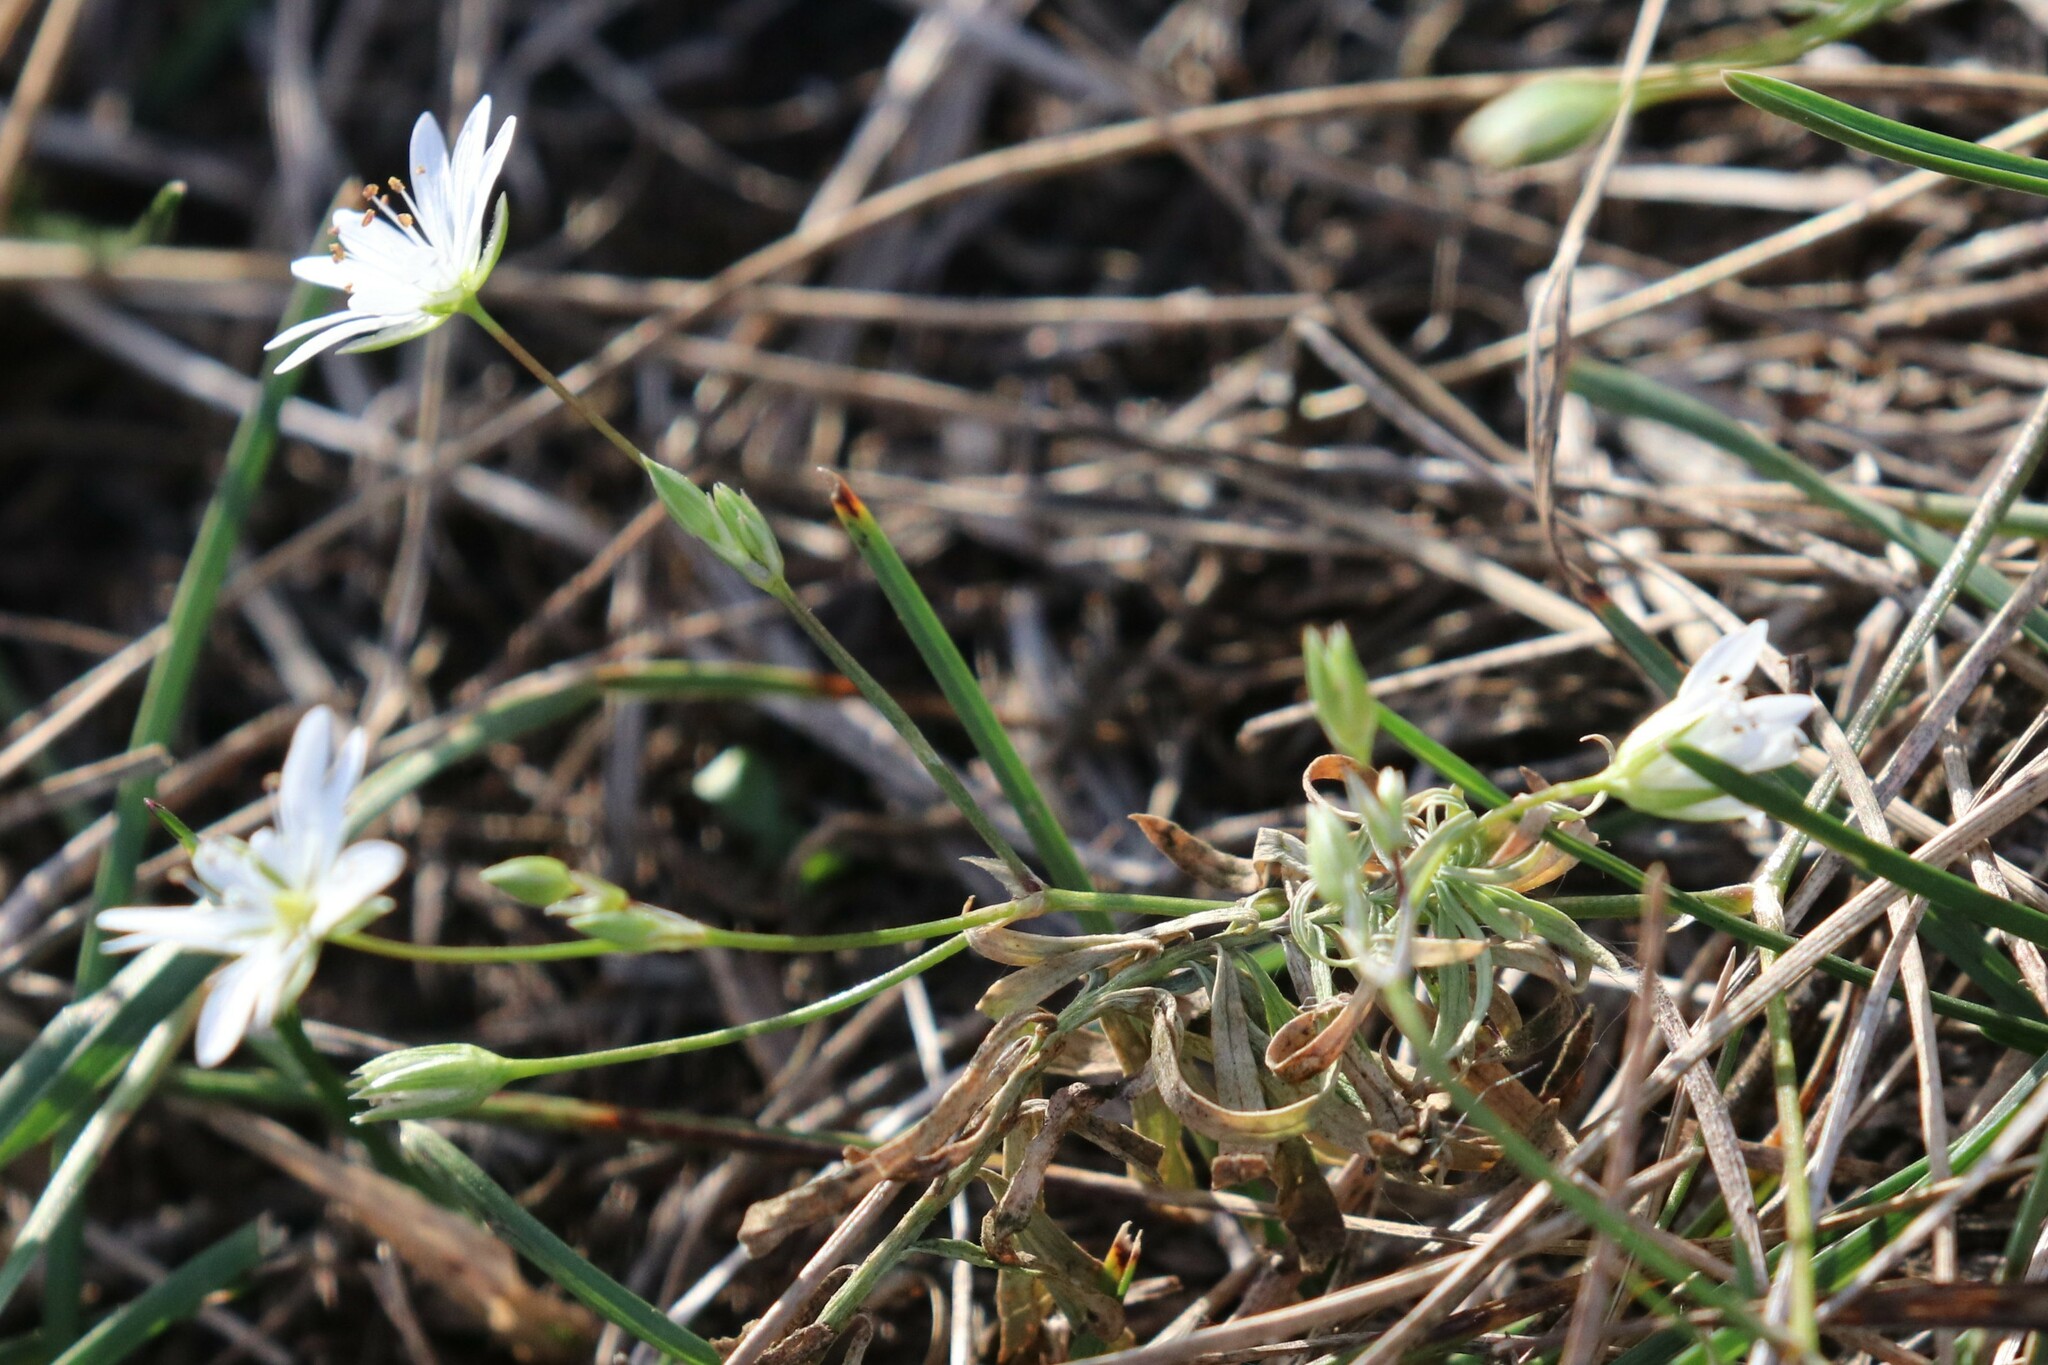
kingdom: Plantae
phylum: Tracheophyta
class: Magnoliopsida
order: Caryophyllales
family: Caryophyllaceae
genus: Stellaria
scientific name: Stellaria graminea
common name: Grass-like starwort
